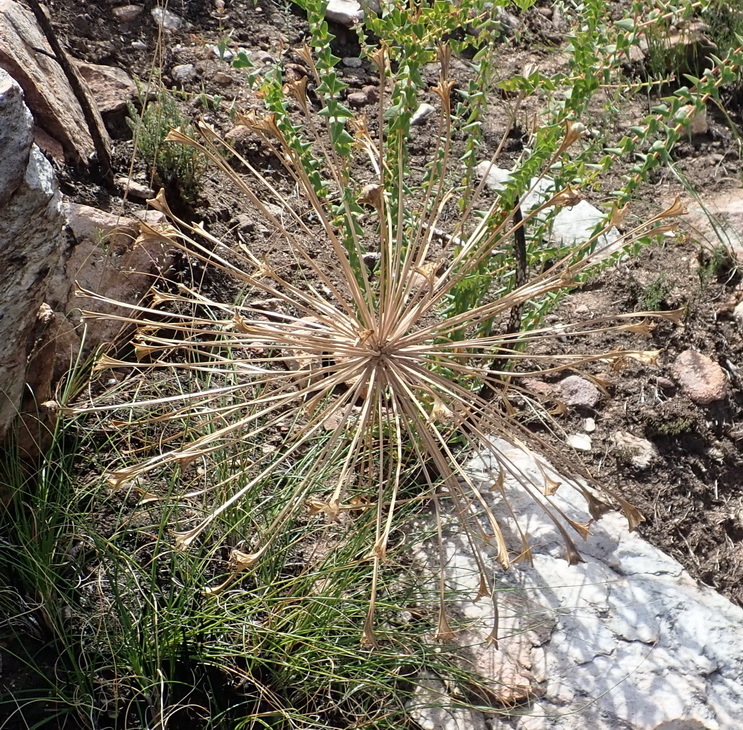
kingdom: Plantae
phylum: Tracheophyta
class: Liliopsida
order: Asparagales
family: Amaryllidaceae
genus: Boophone
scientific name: Boophone disticha
